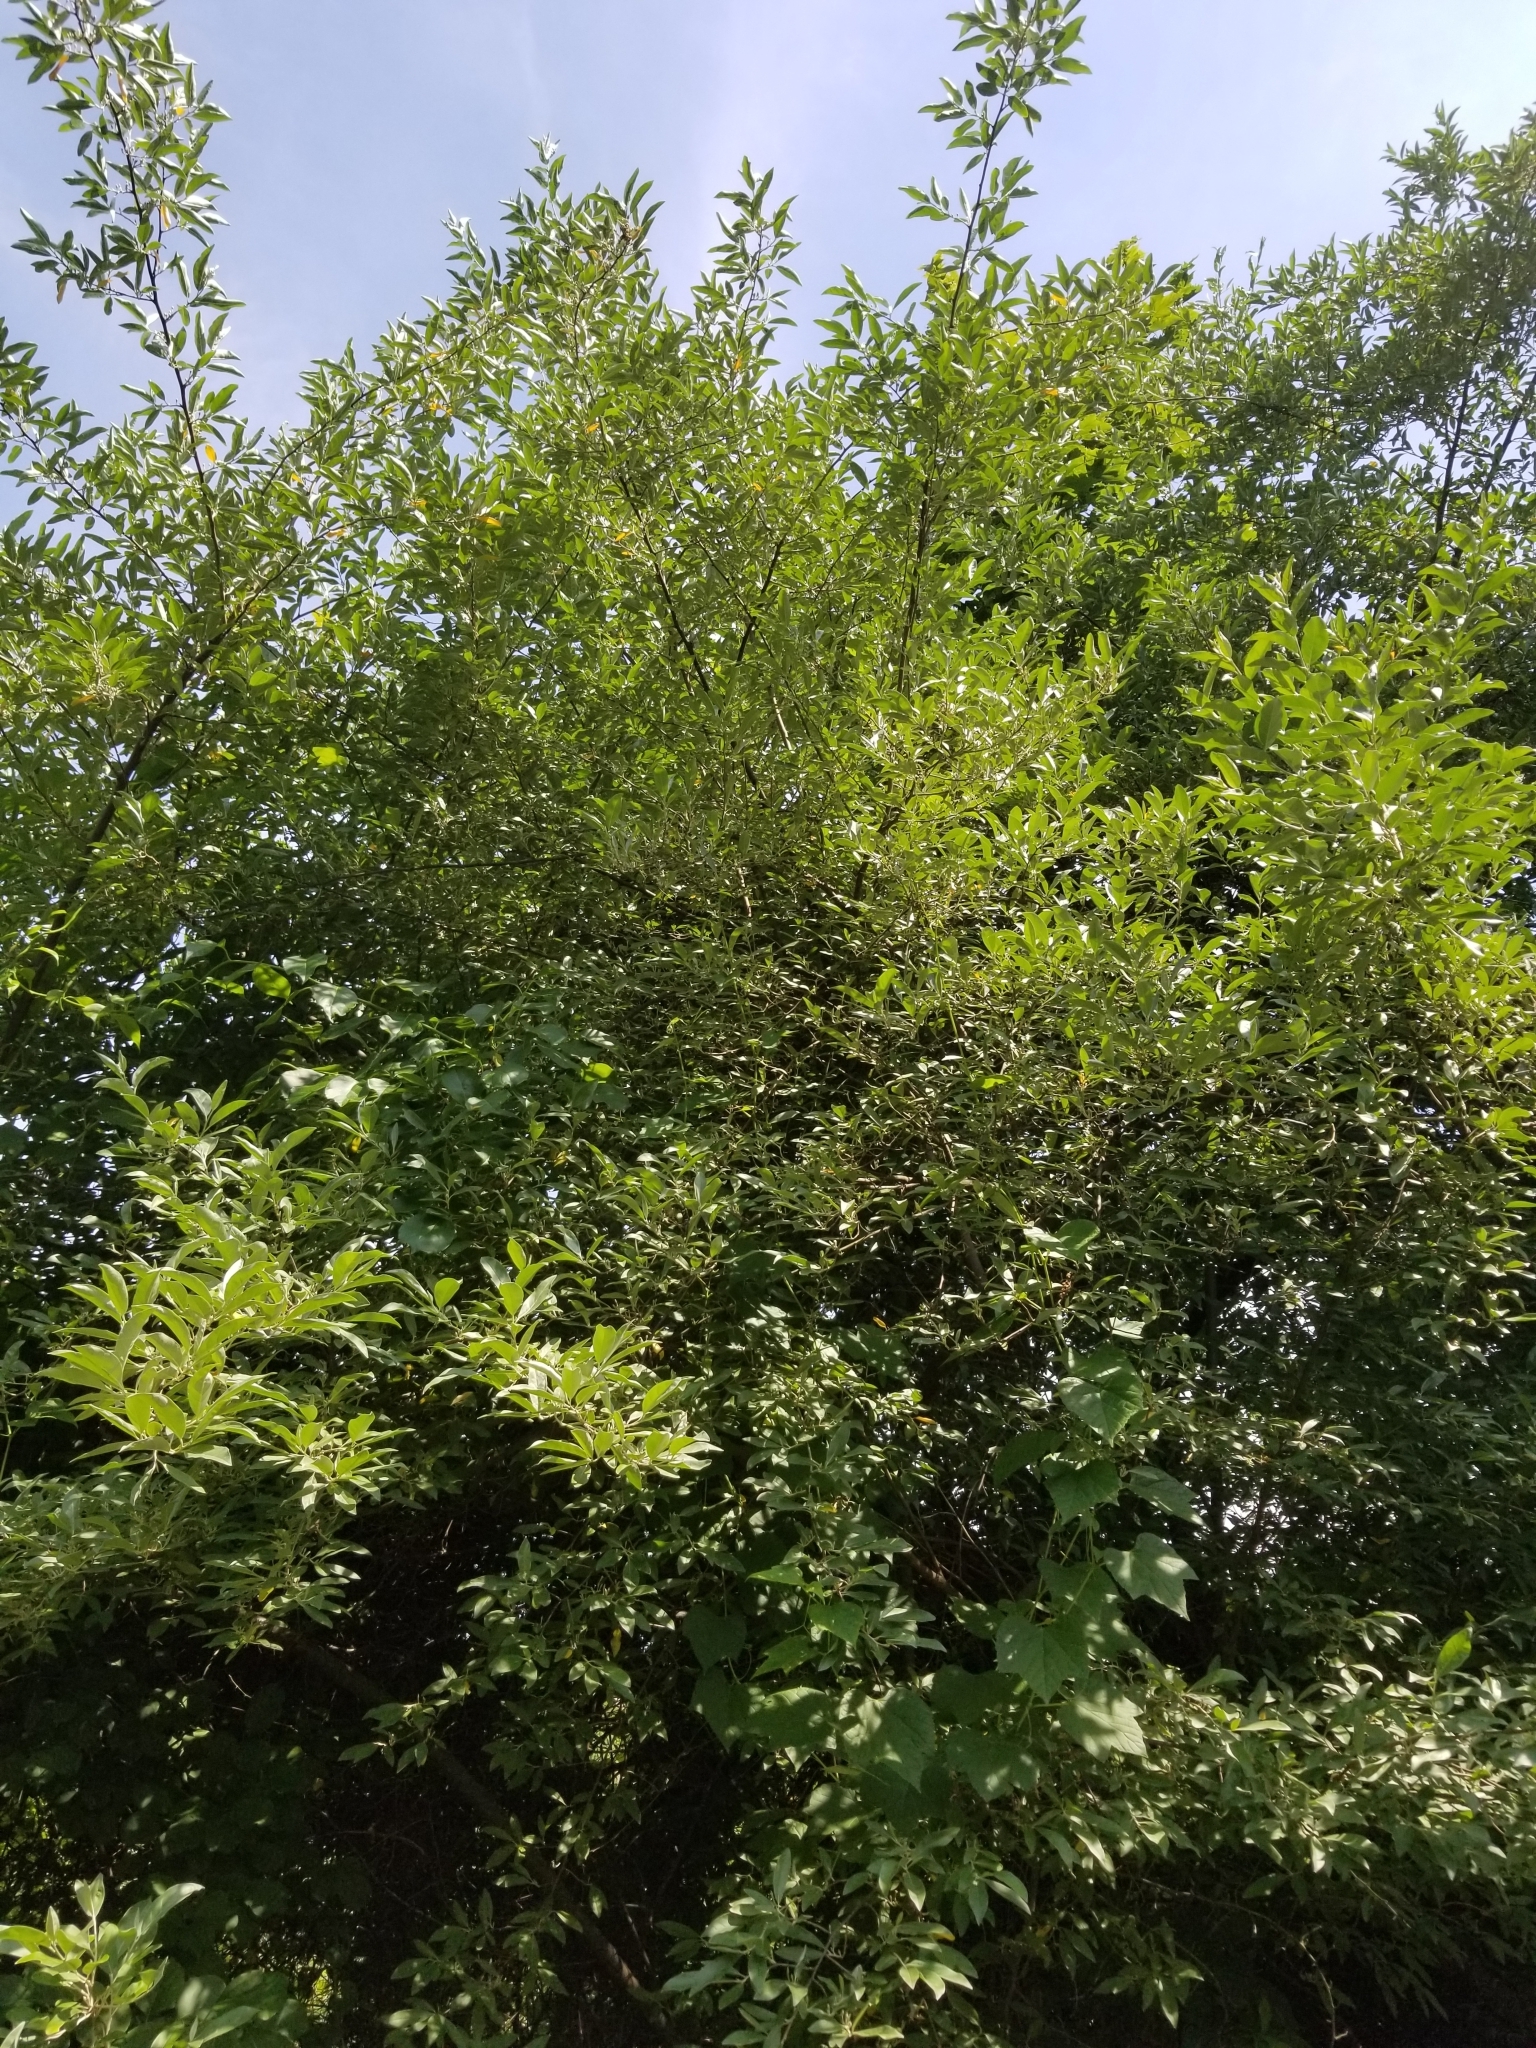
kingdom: Plantae
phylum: Tracheophyta
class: Magnoliopsida
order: Rosales
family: Elaeagnaceae
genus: Elaeagnus
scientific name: Elaeagnus umbellata
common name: Autumn olive
